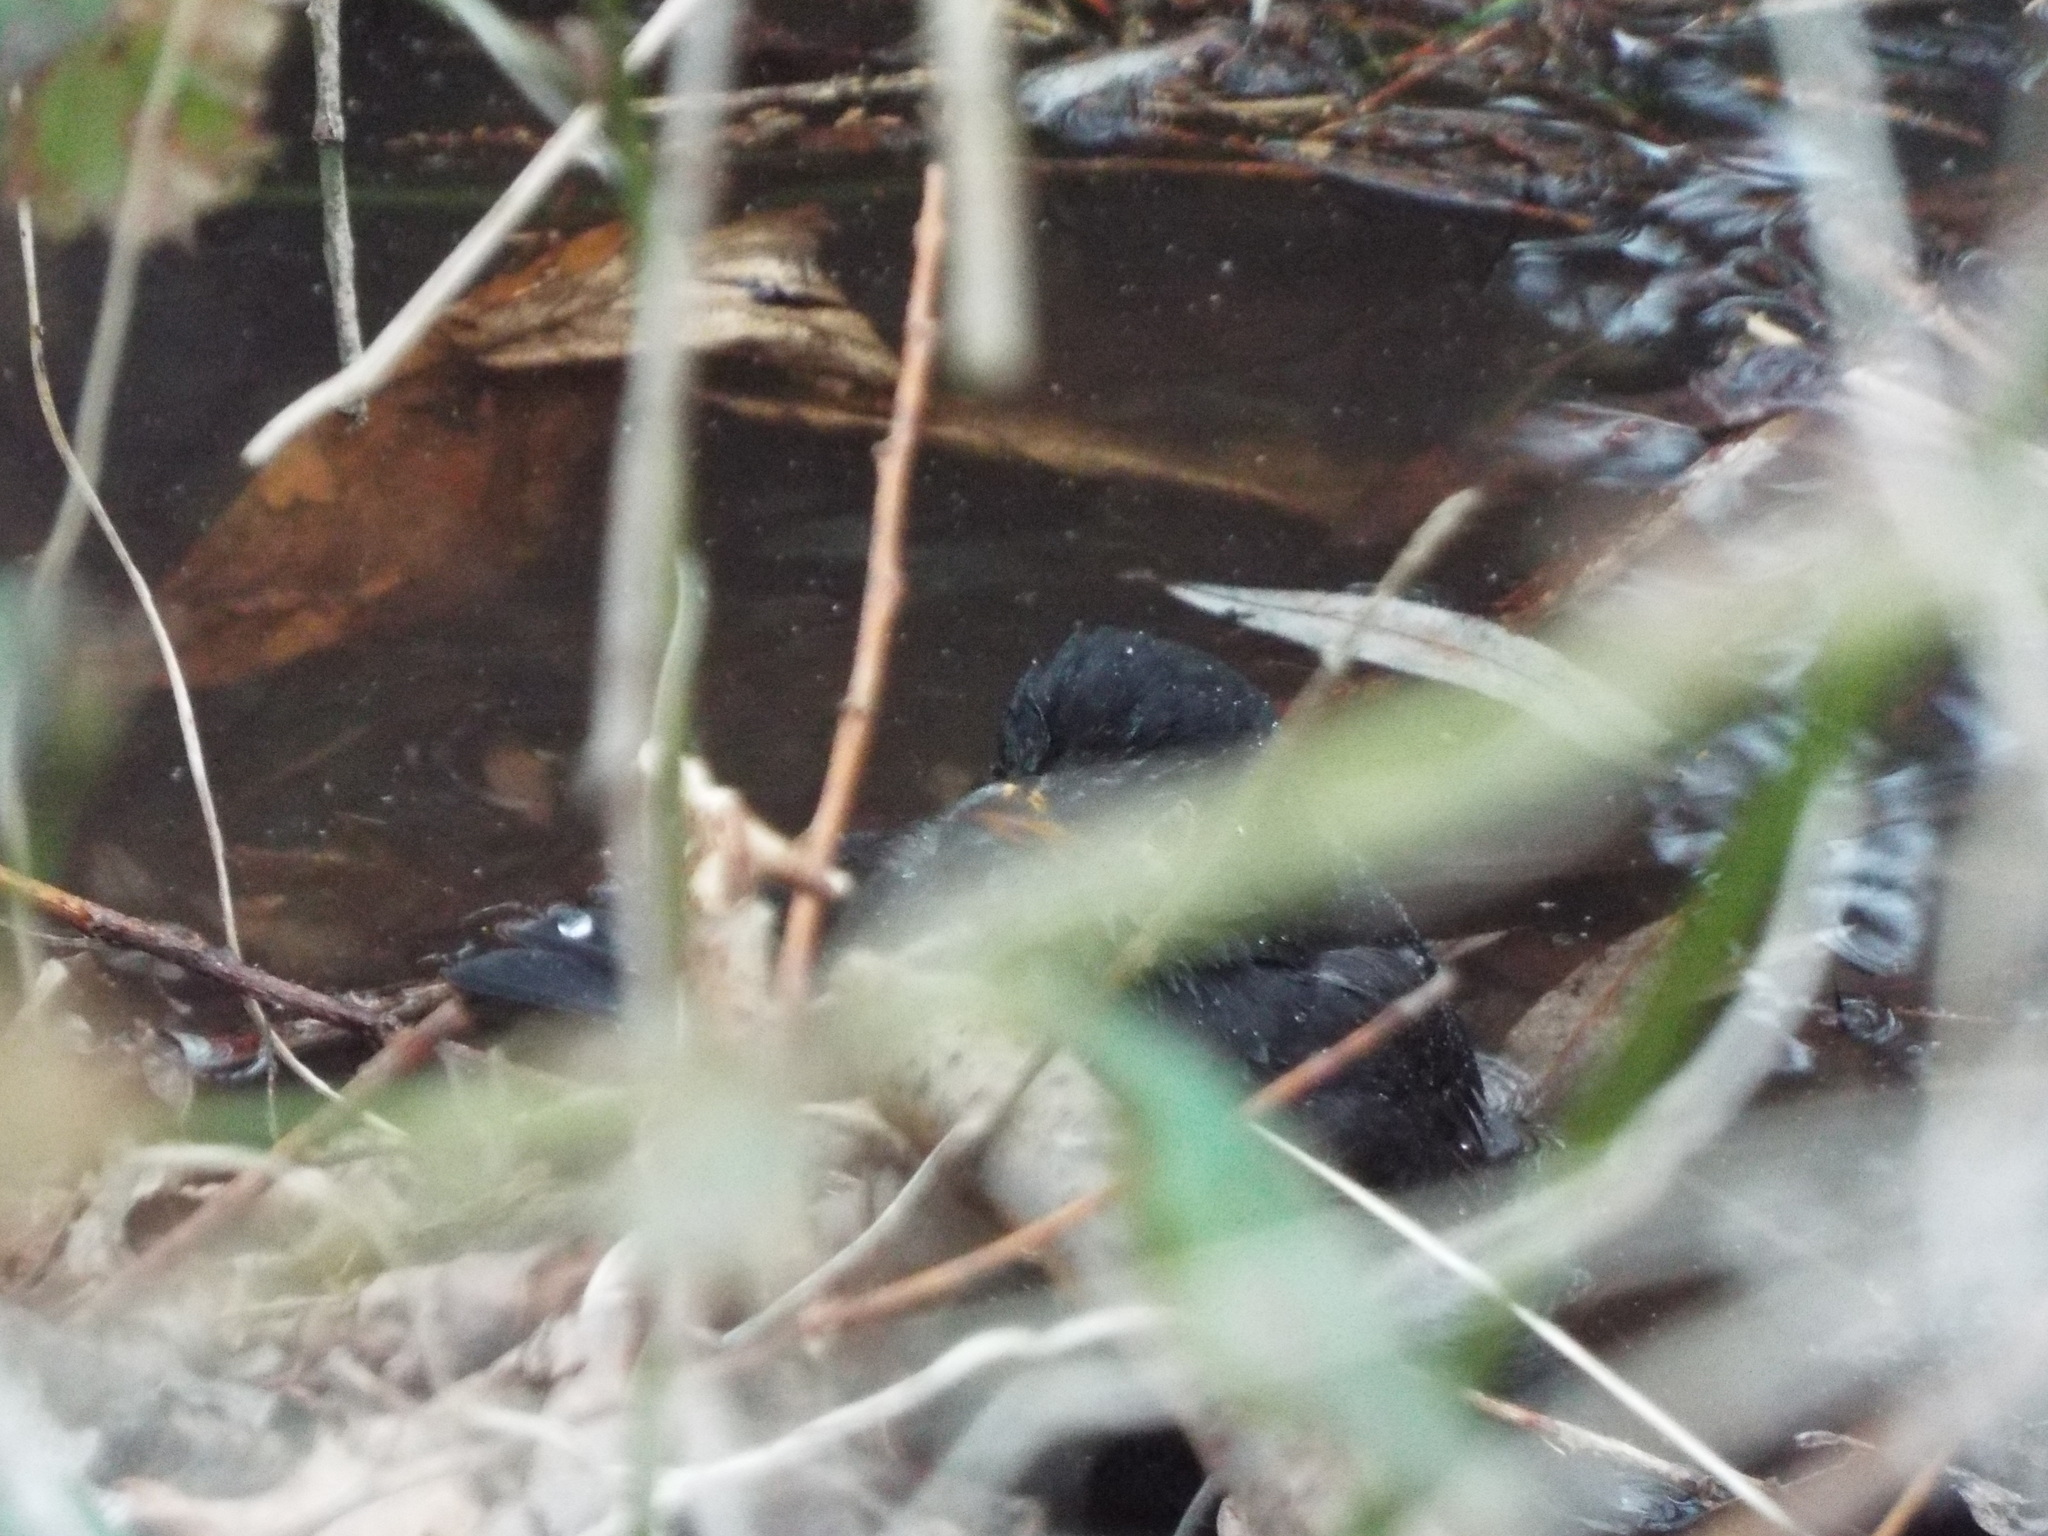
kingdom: Animalia
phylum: Chordata
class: Aves
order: Passeriformes
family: Turdidae
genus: Turdus
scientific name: Turdus merula
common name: Common blackbird
